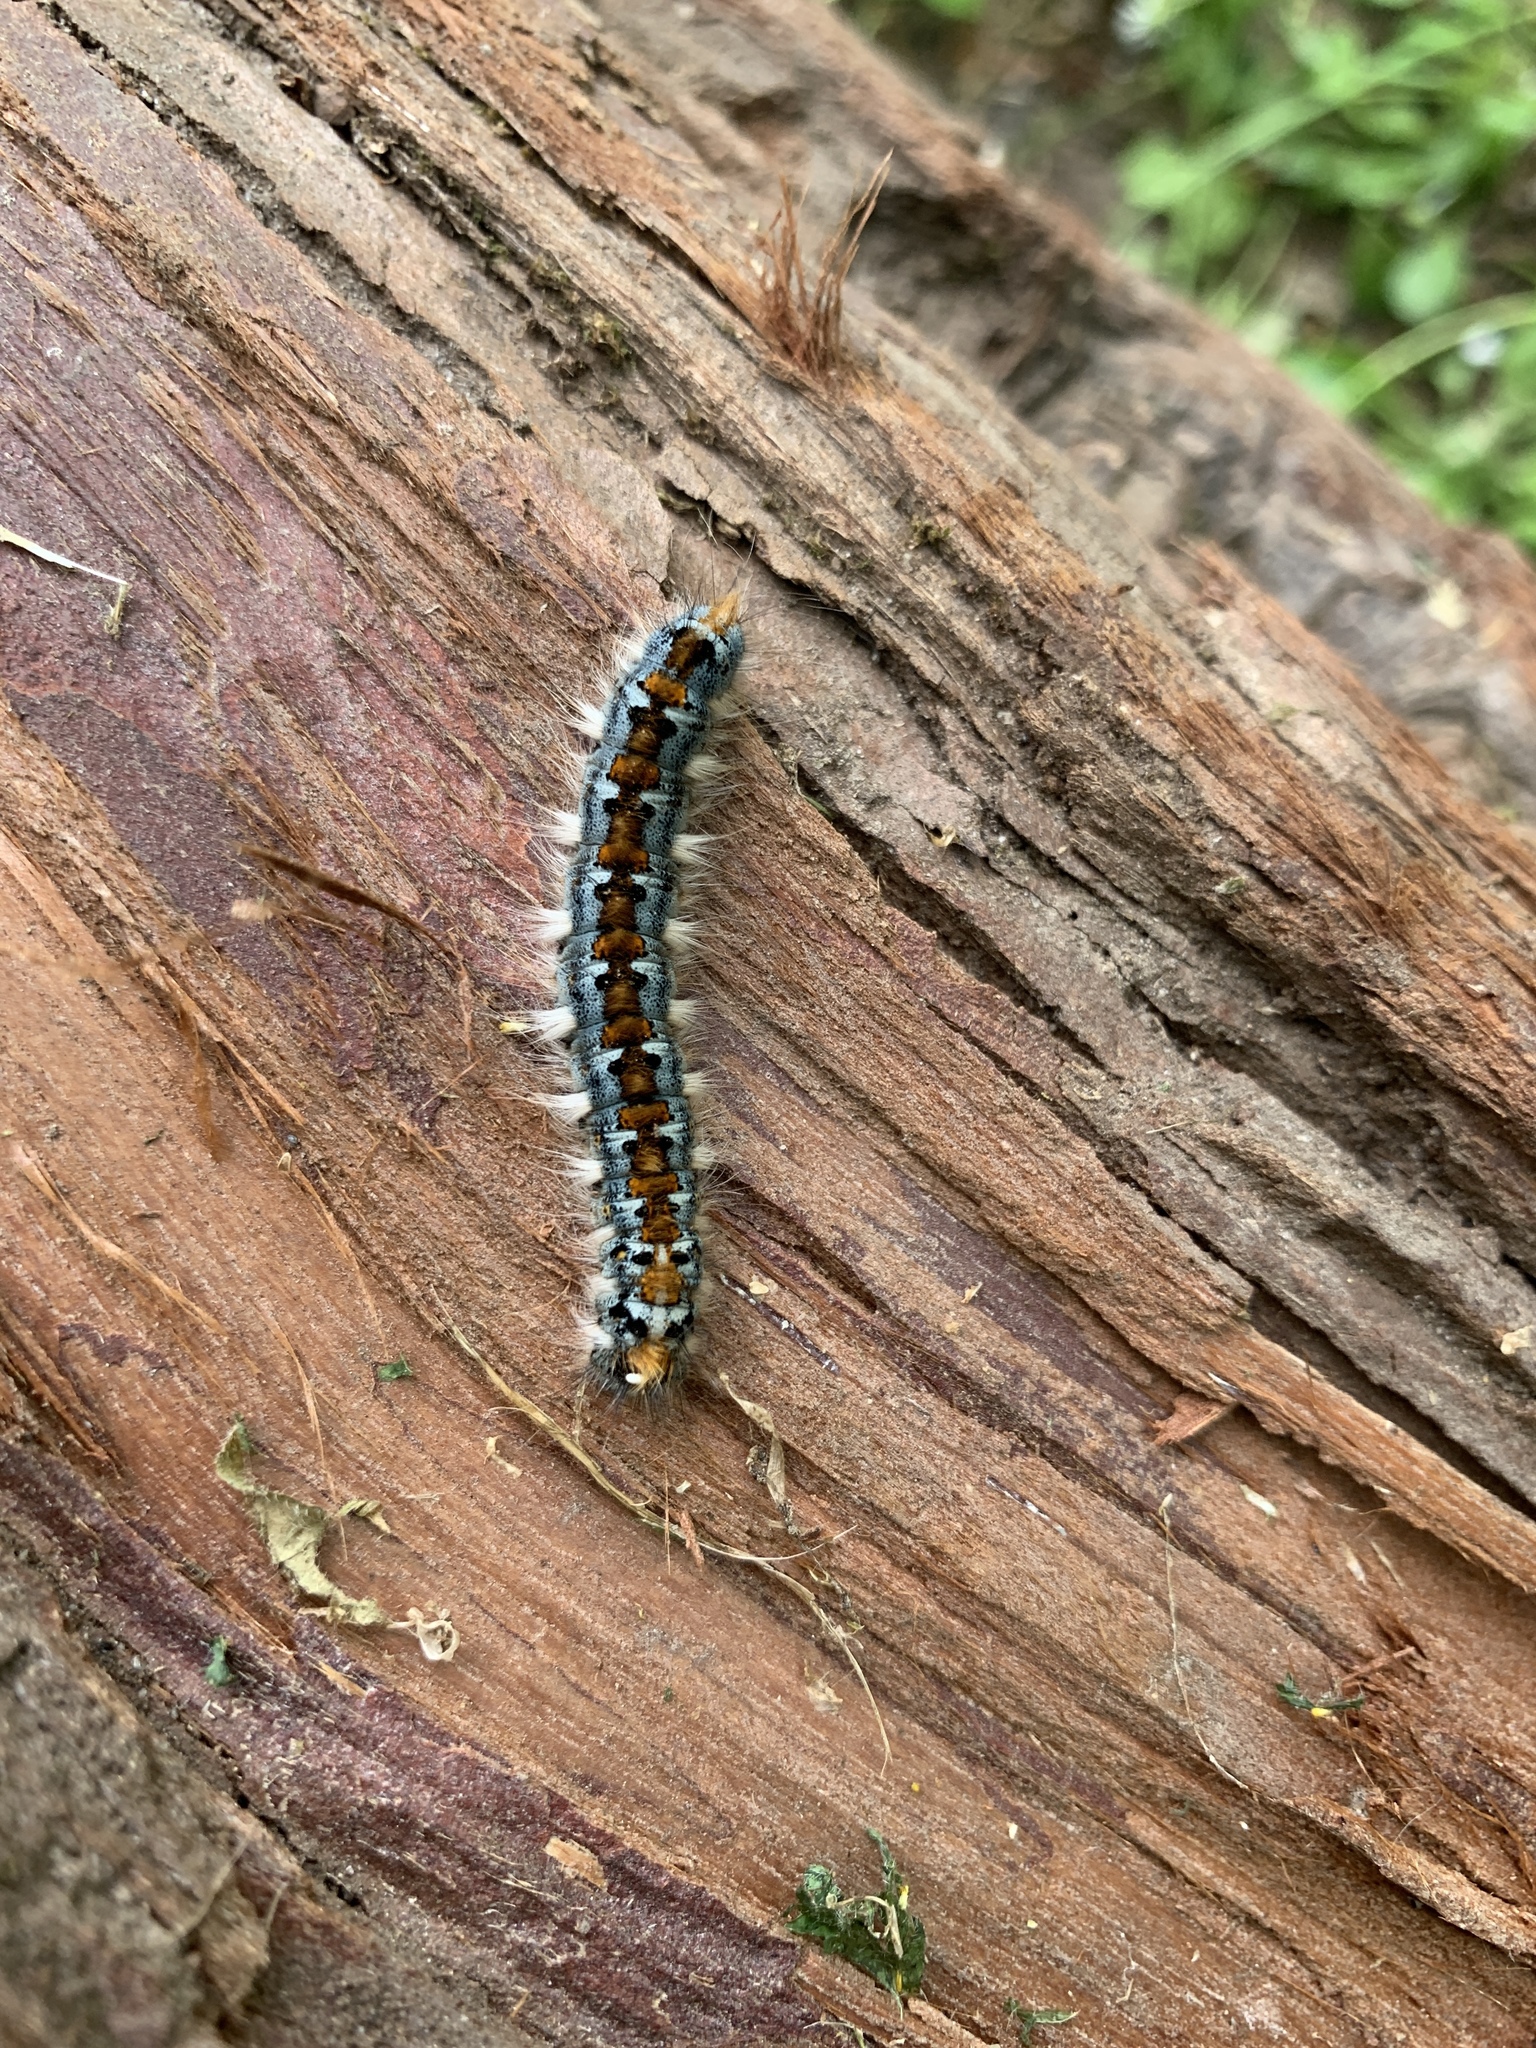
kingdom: Animalia
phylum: Arthropoda
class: Insecta
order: Lepidoptera
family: Lasiocampidae
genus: Malacosoma
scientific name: Malacosoma constricta
